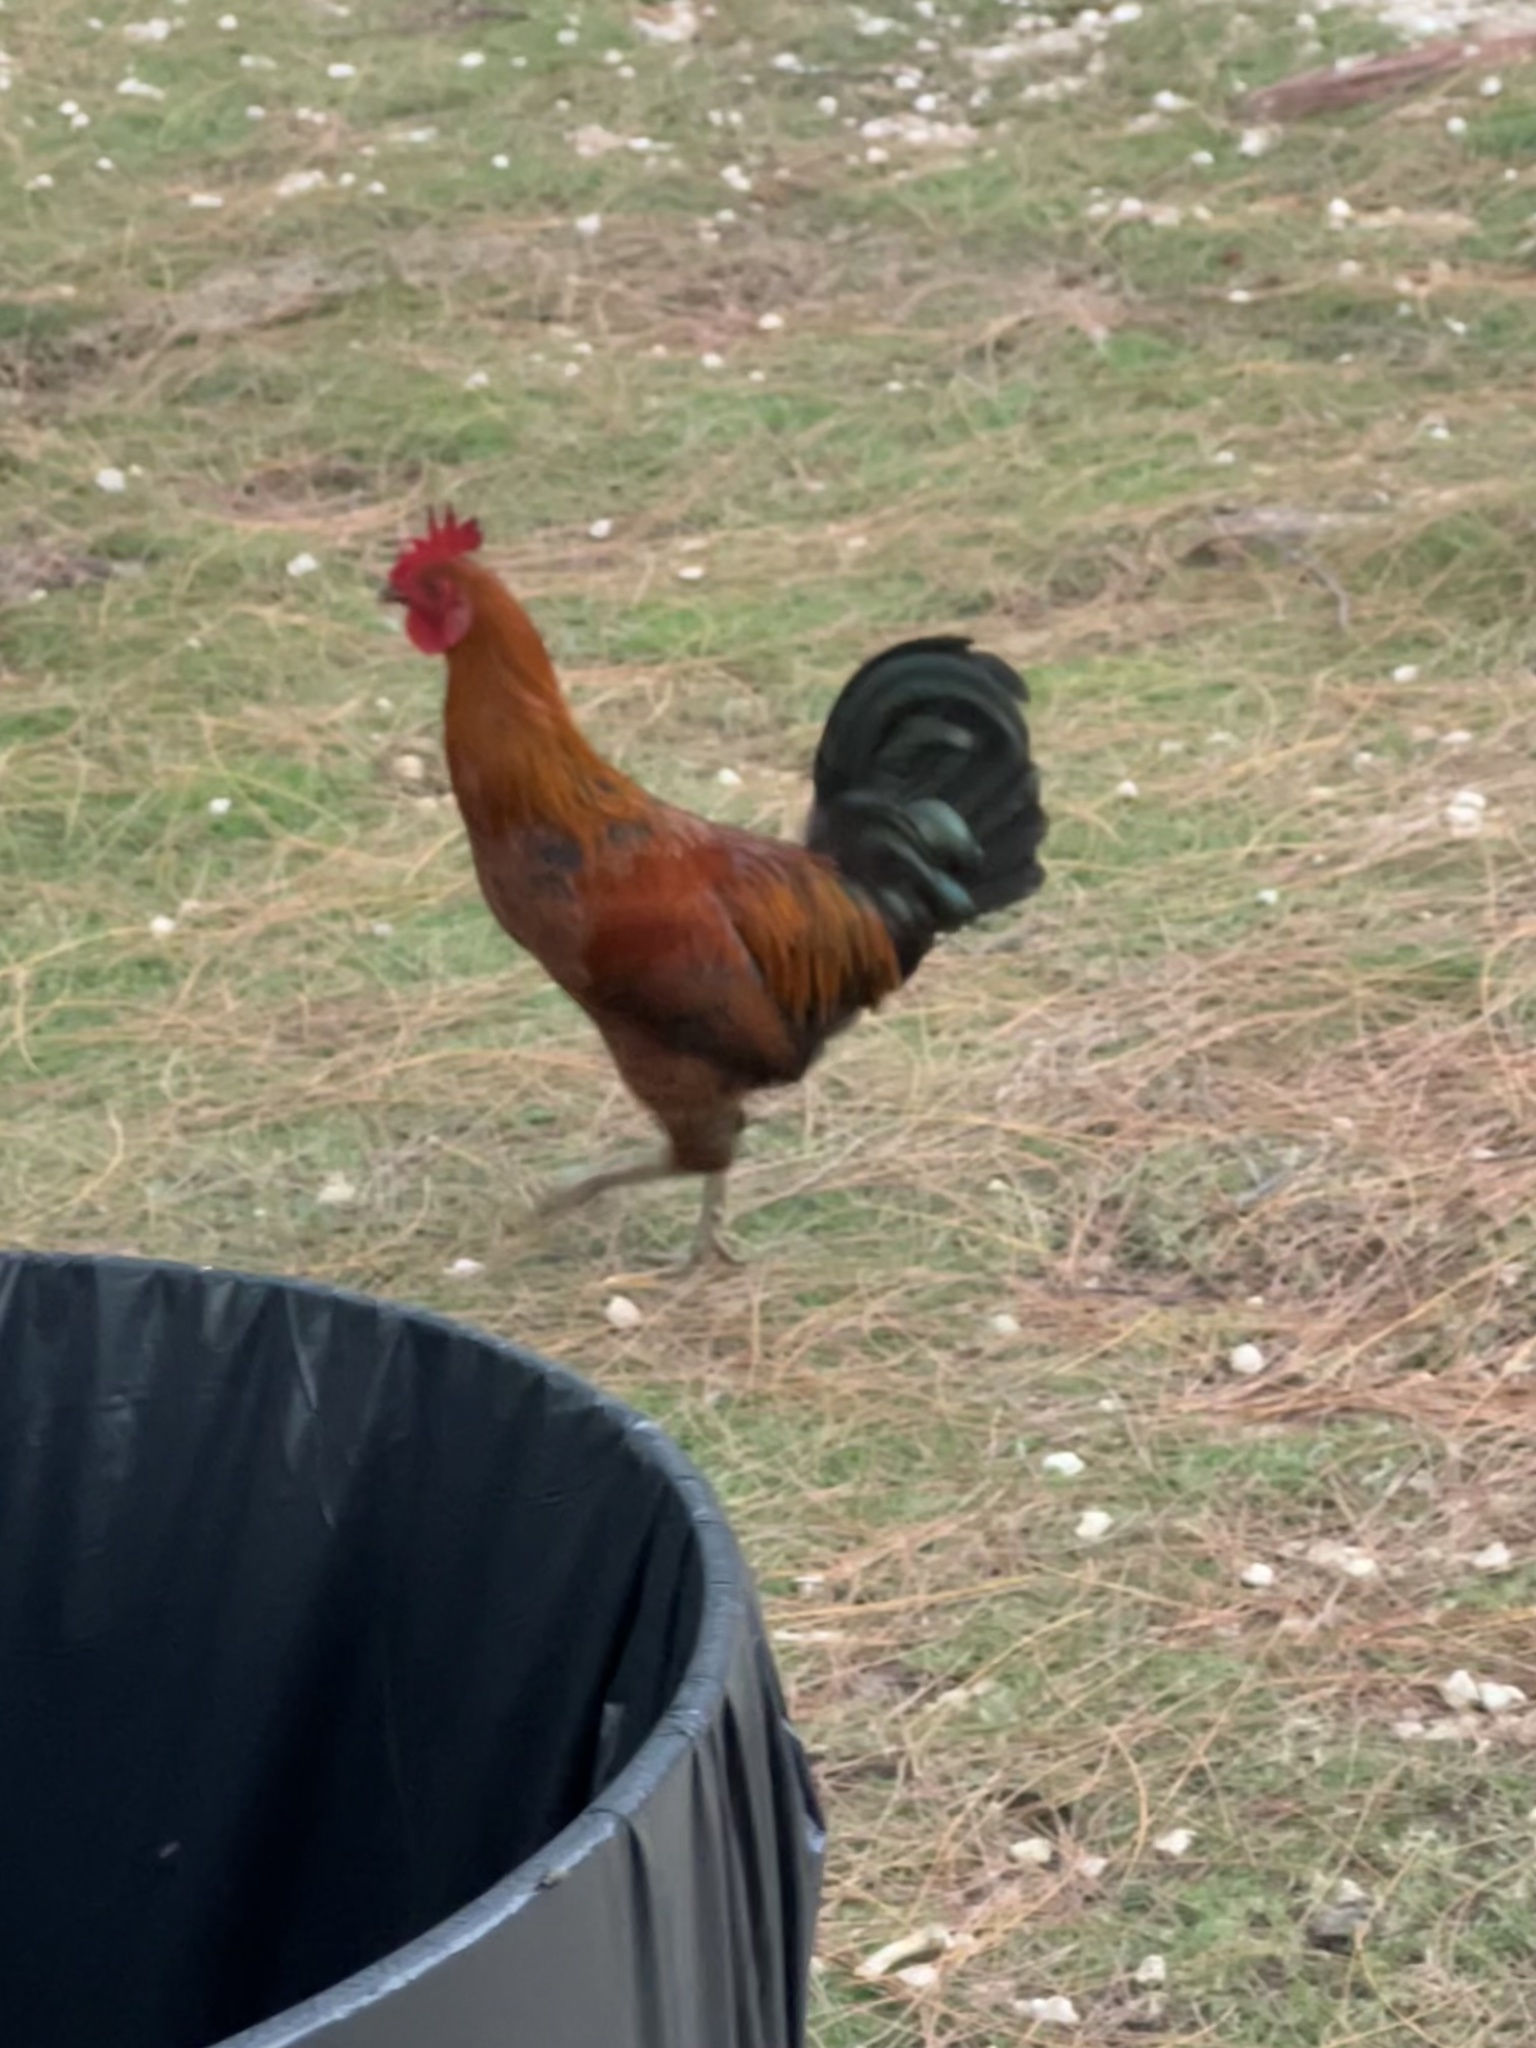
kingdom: Animalia
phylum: Chordata
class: Aves
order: Galliformes
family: Phasianidae
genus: Gallus
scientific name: Gallus gallus
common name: Red junglefowl
